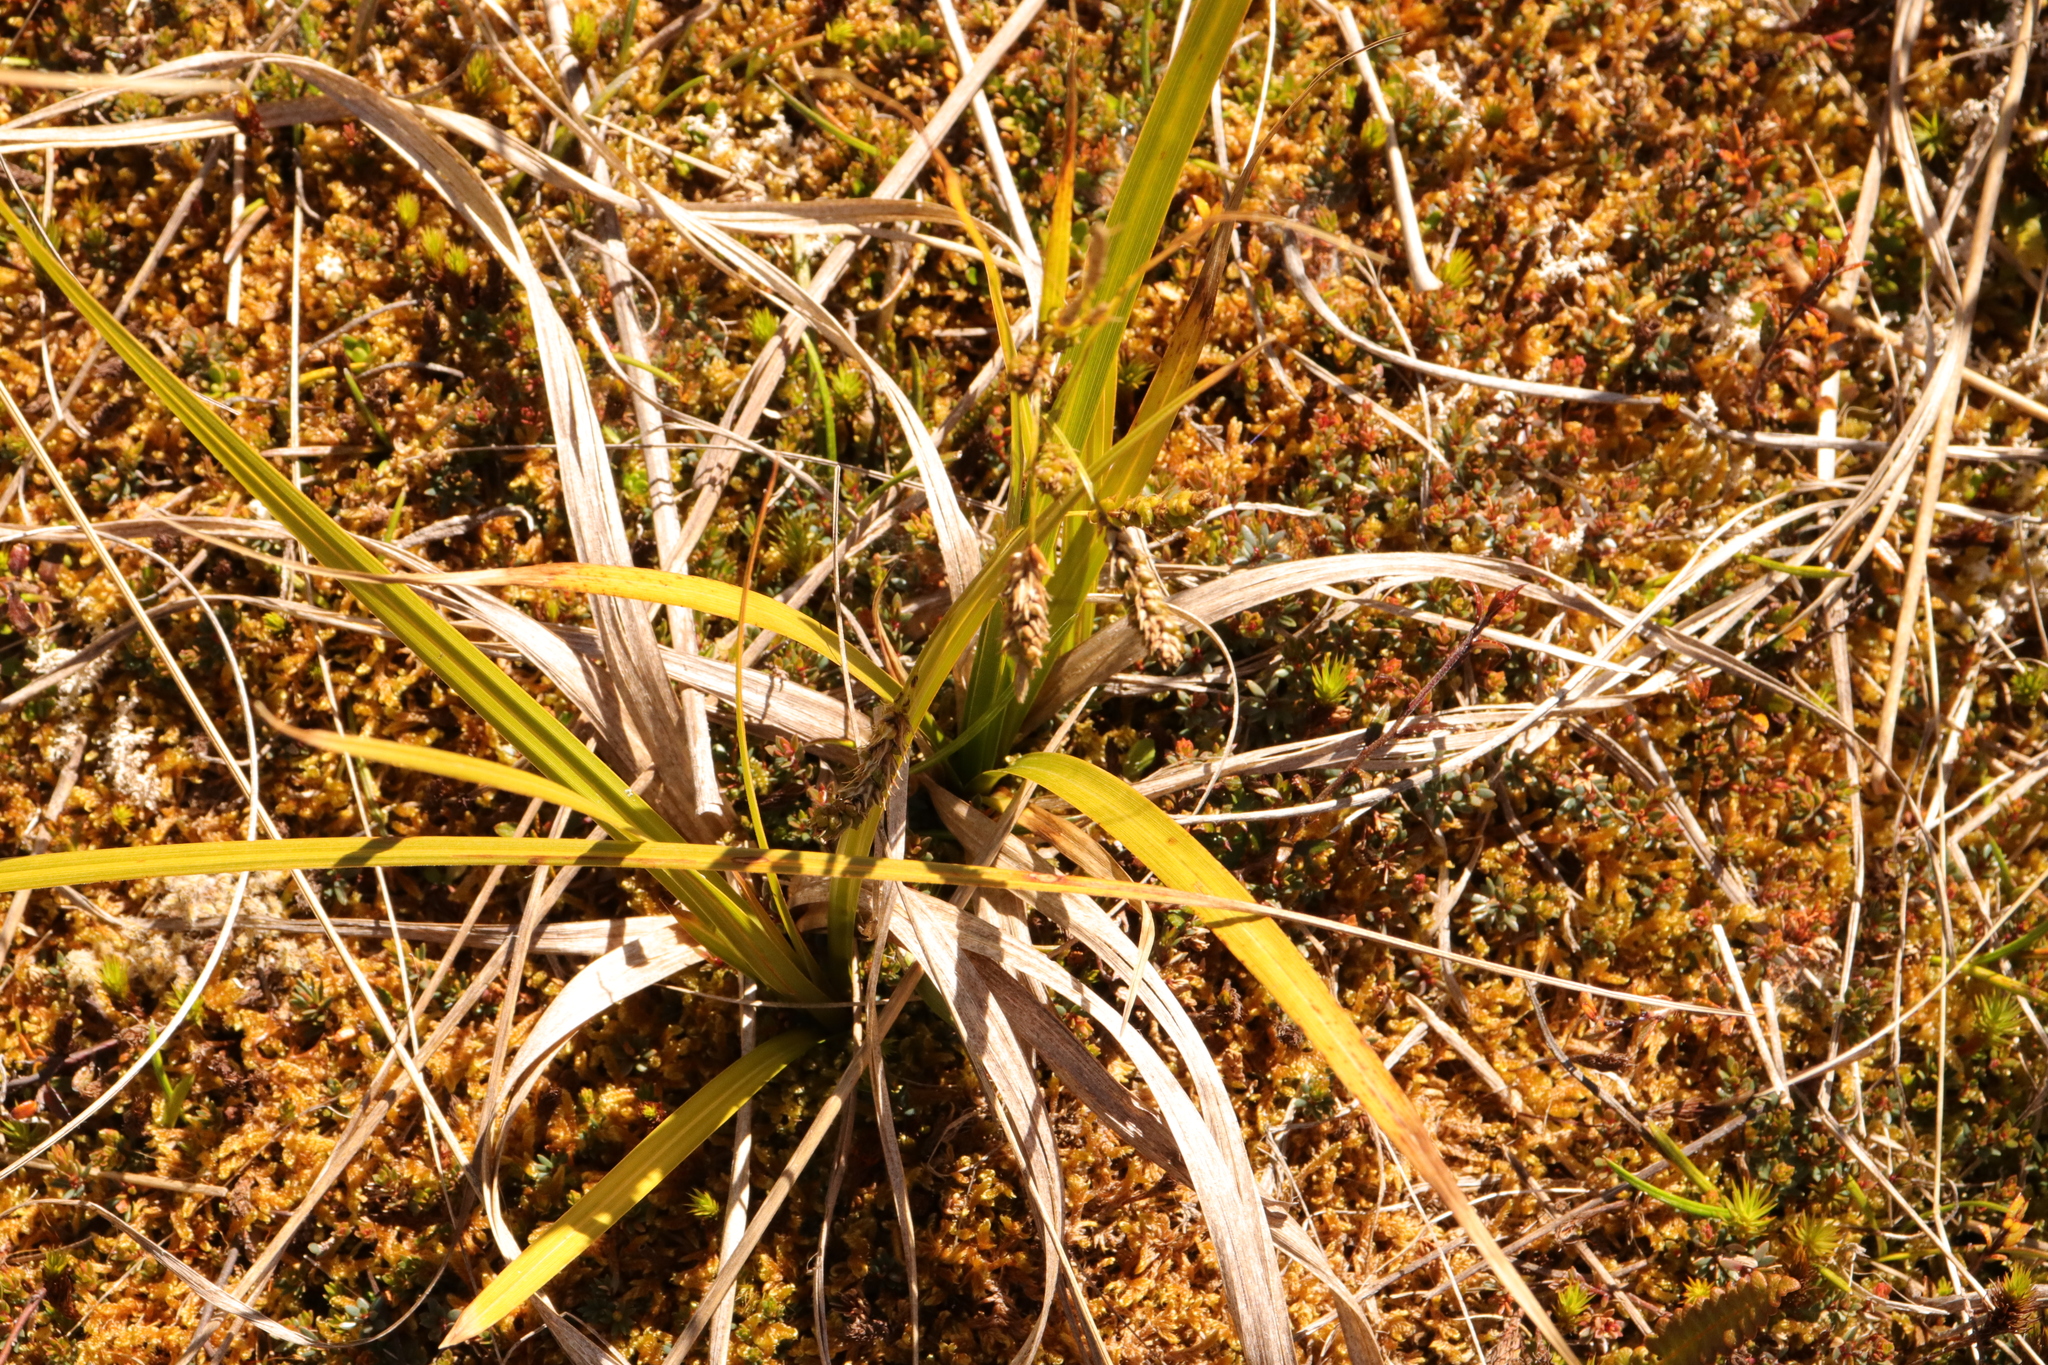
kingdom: Plantae
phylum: Tracheophyta
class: Liliopsida
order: Poales
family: Cyperaceae
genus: Carex
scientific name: Carex coriacea
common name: Rautahi
